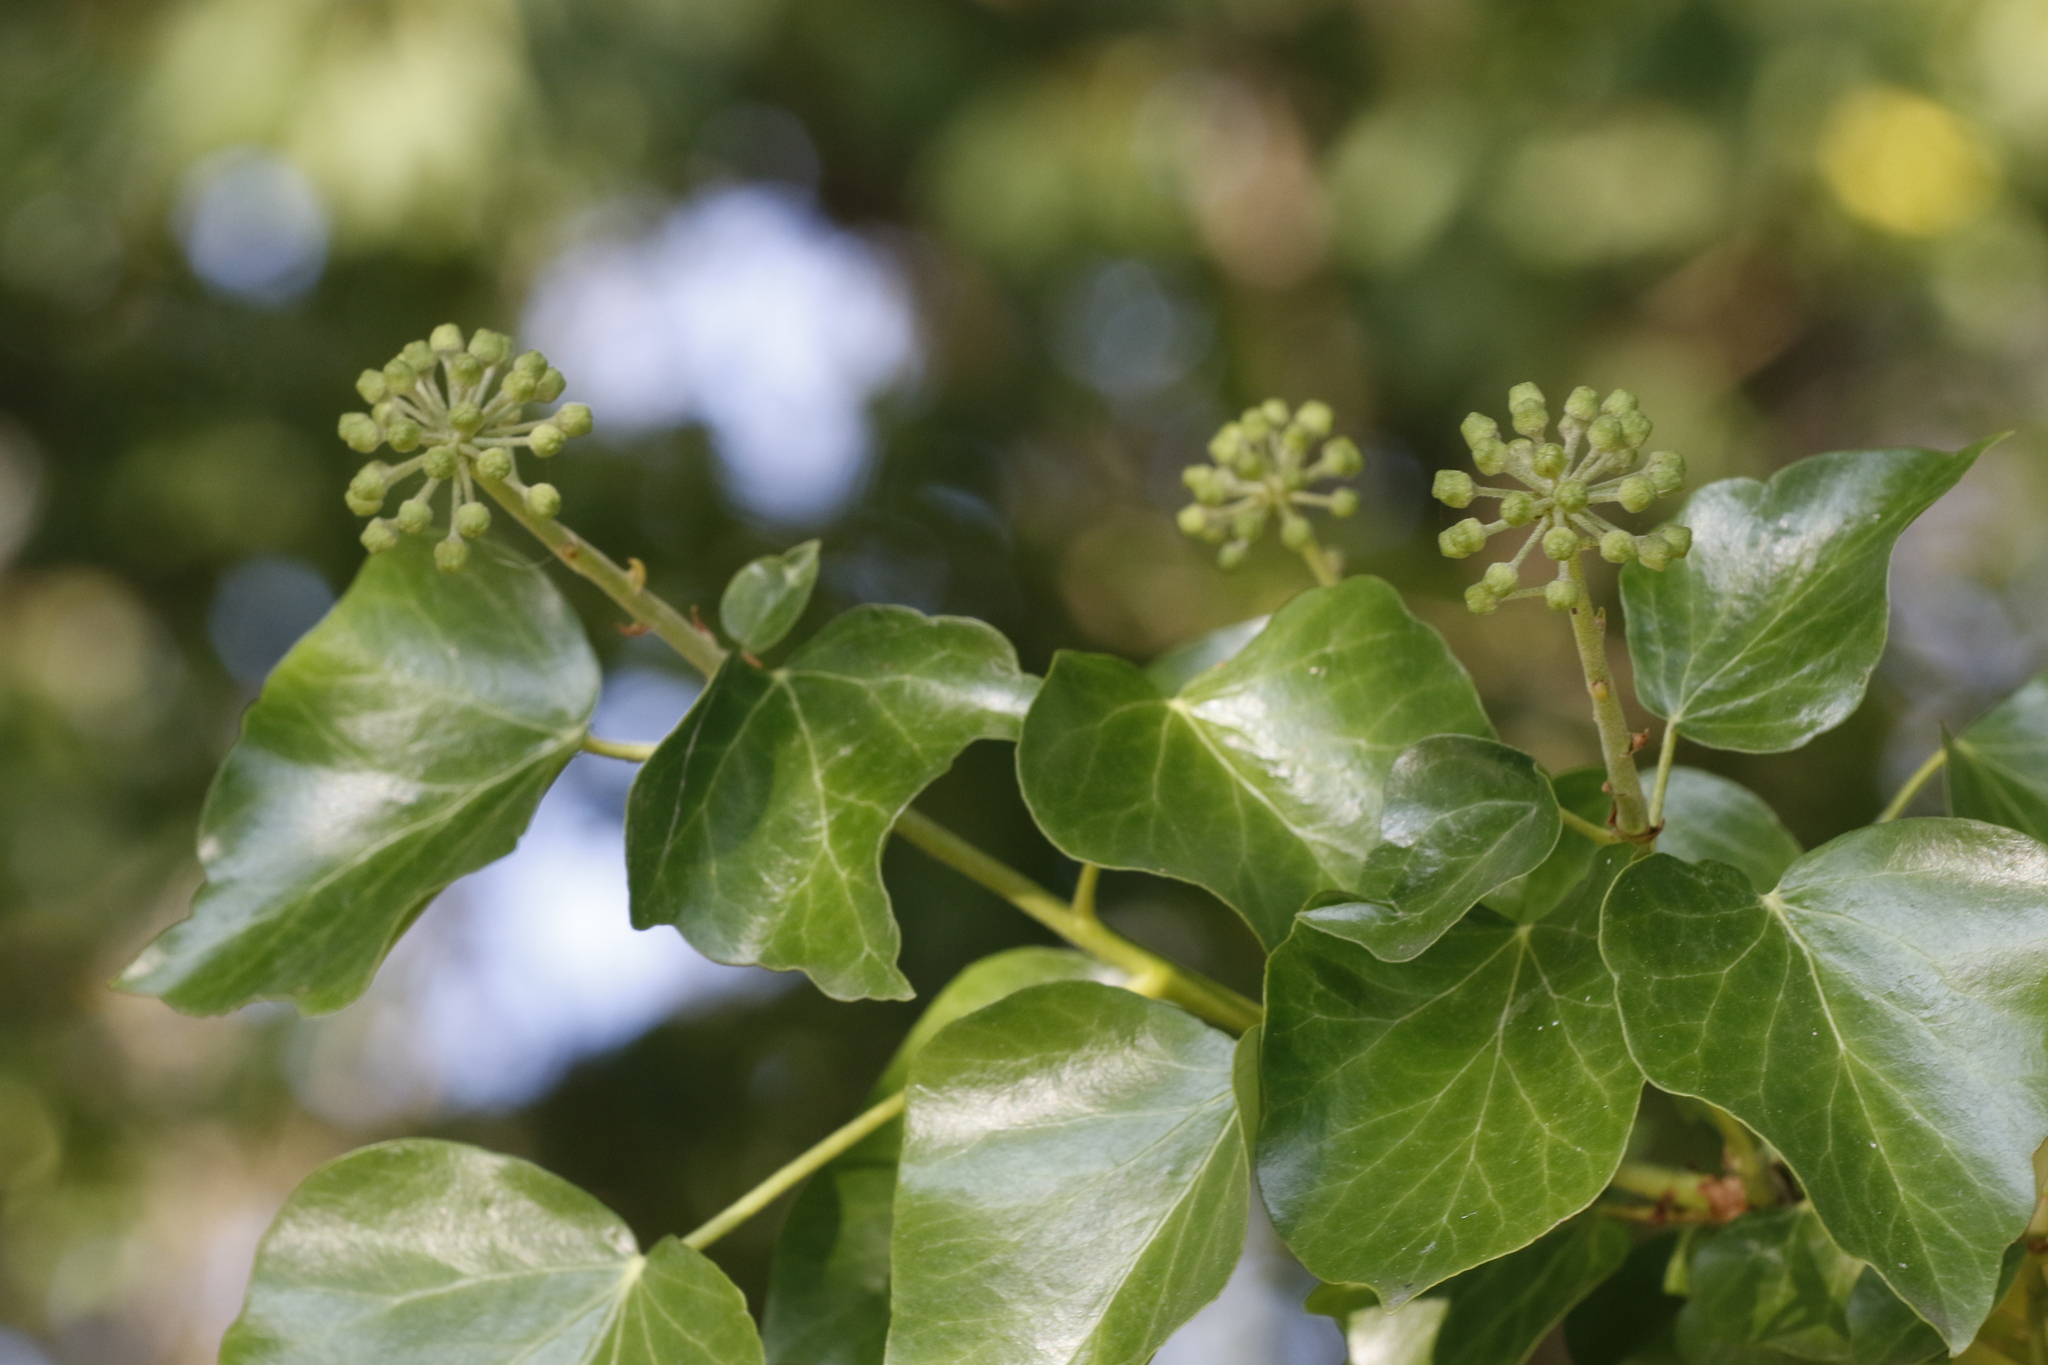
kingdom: Plantae
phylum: Tracheophyta
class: Magnoliopsida
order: Apiales
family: Araliaceae
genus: Hedera
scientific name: Hedera helix
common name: Ivy
